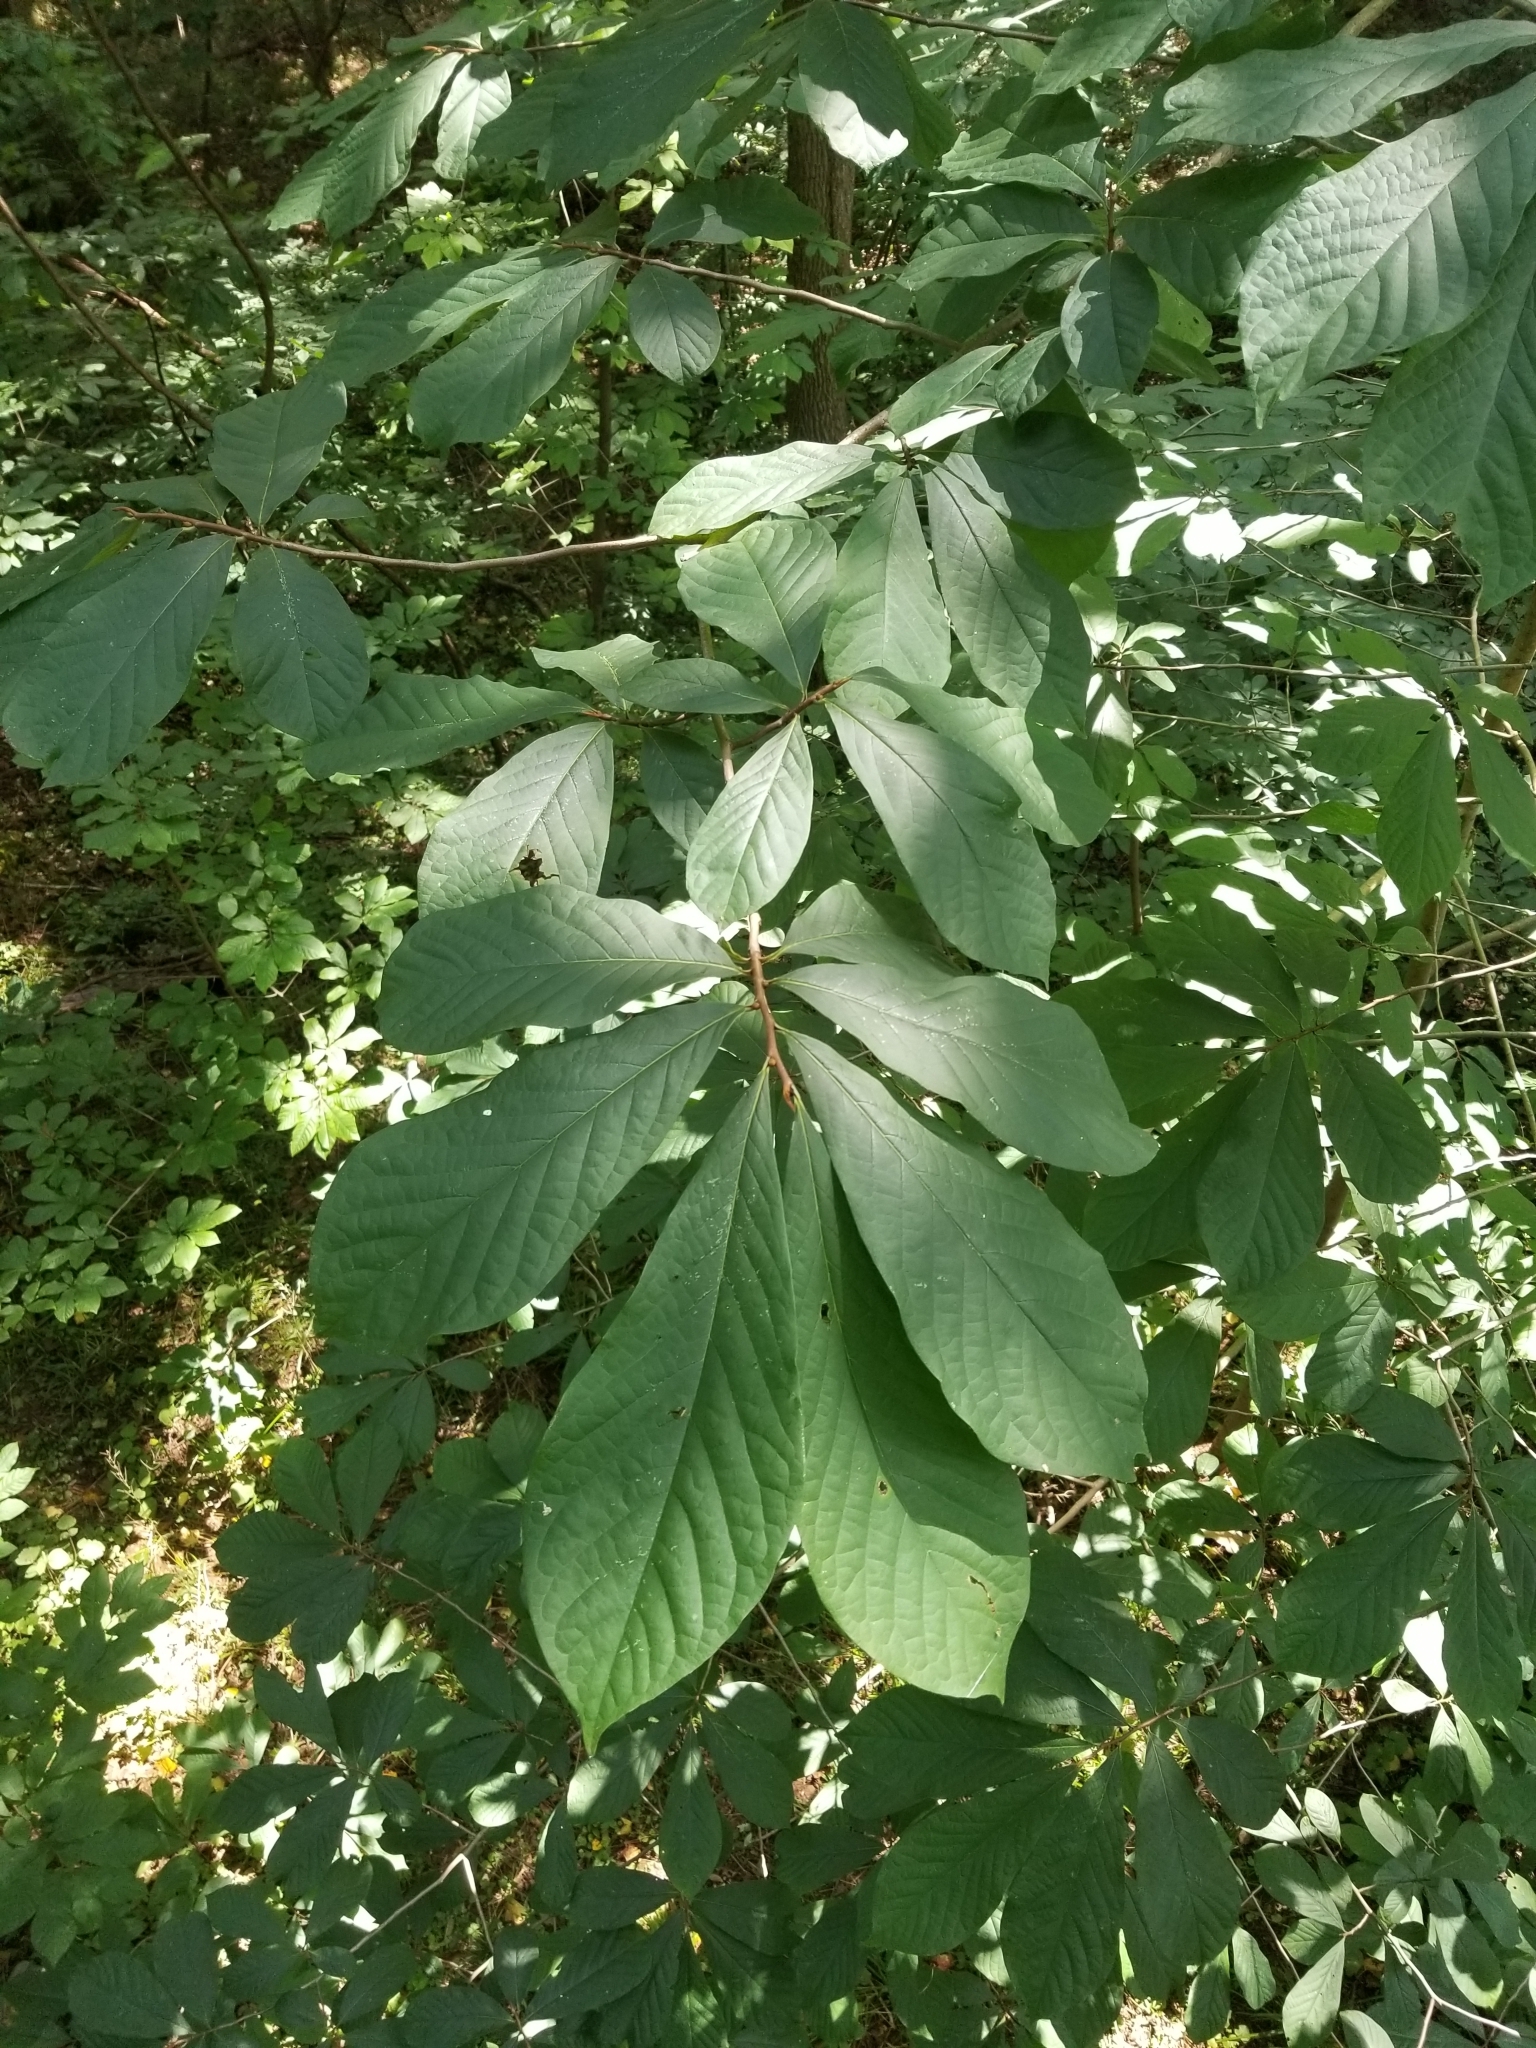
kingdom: Plantae
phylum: Tracheophyta
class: Magnoliopsida
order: Magnoliales
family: Annonaceae
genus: Asimina
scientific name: Asimina triloba
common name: Dog-banana
